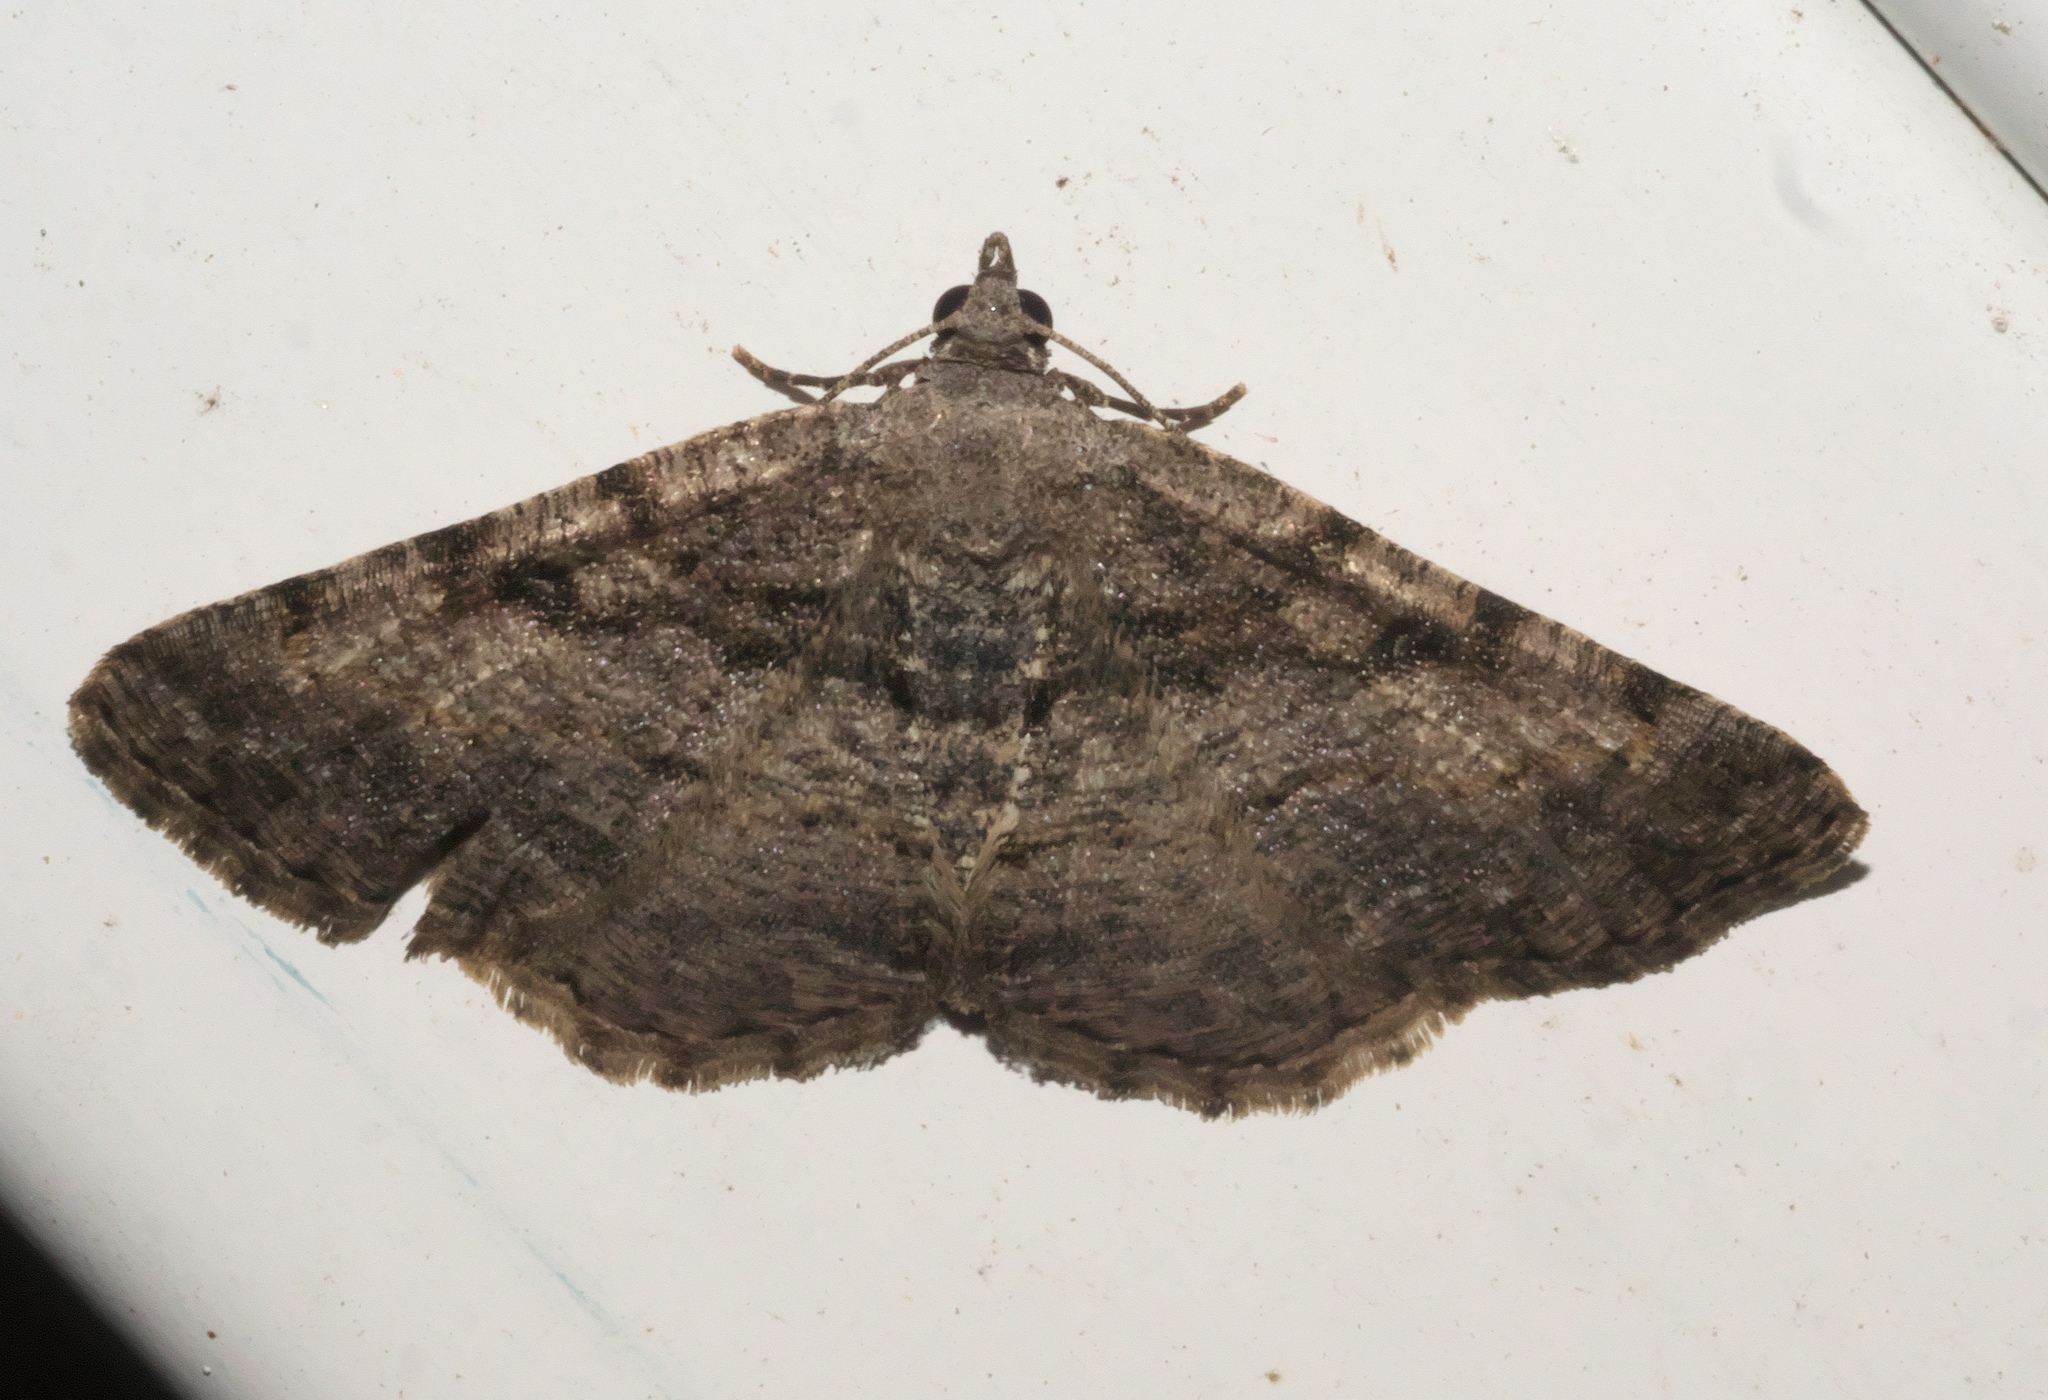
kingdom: Animalia
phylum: Arthropoda
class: Insecta
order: Lepidoptera
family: Geometridae
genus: Digrammia
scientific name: Digrammia gnophosaria
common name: Hollow-spotted angle
